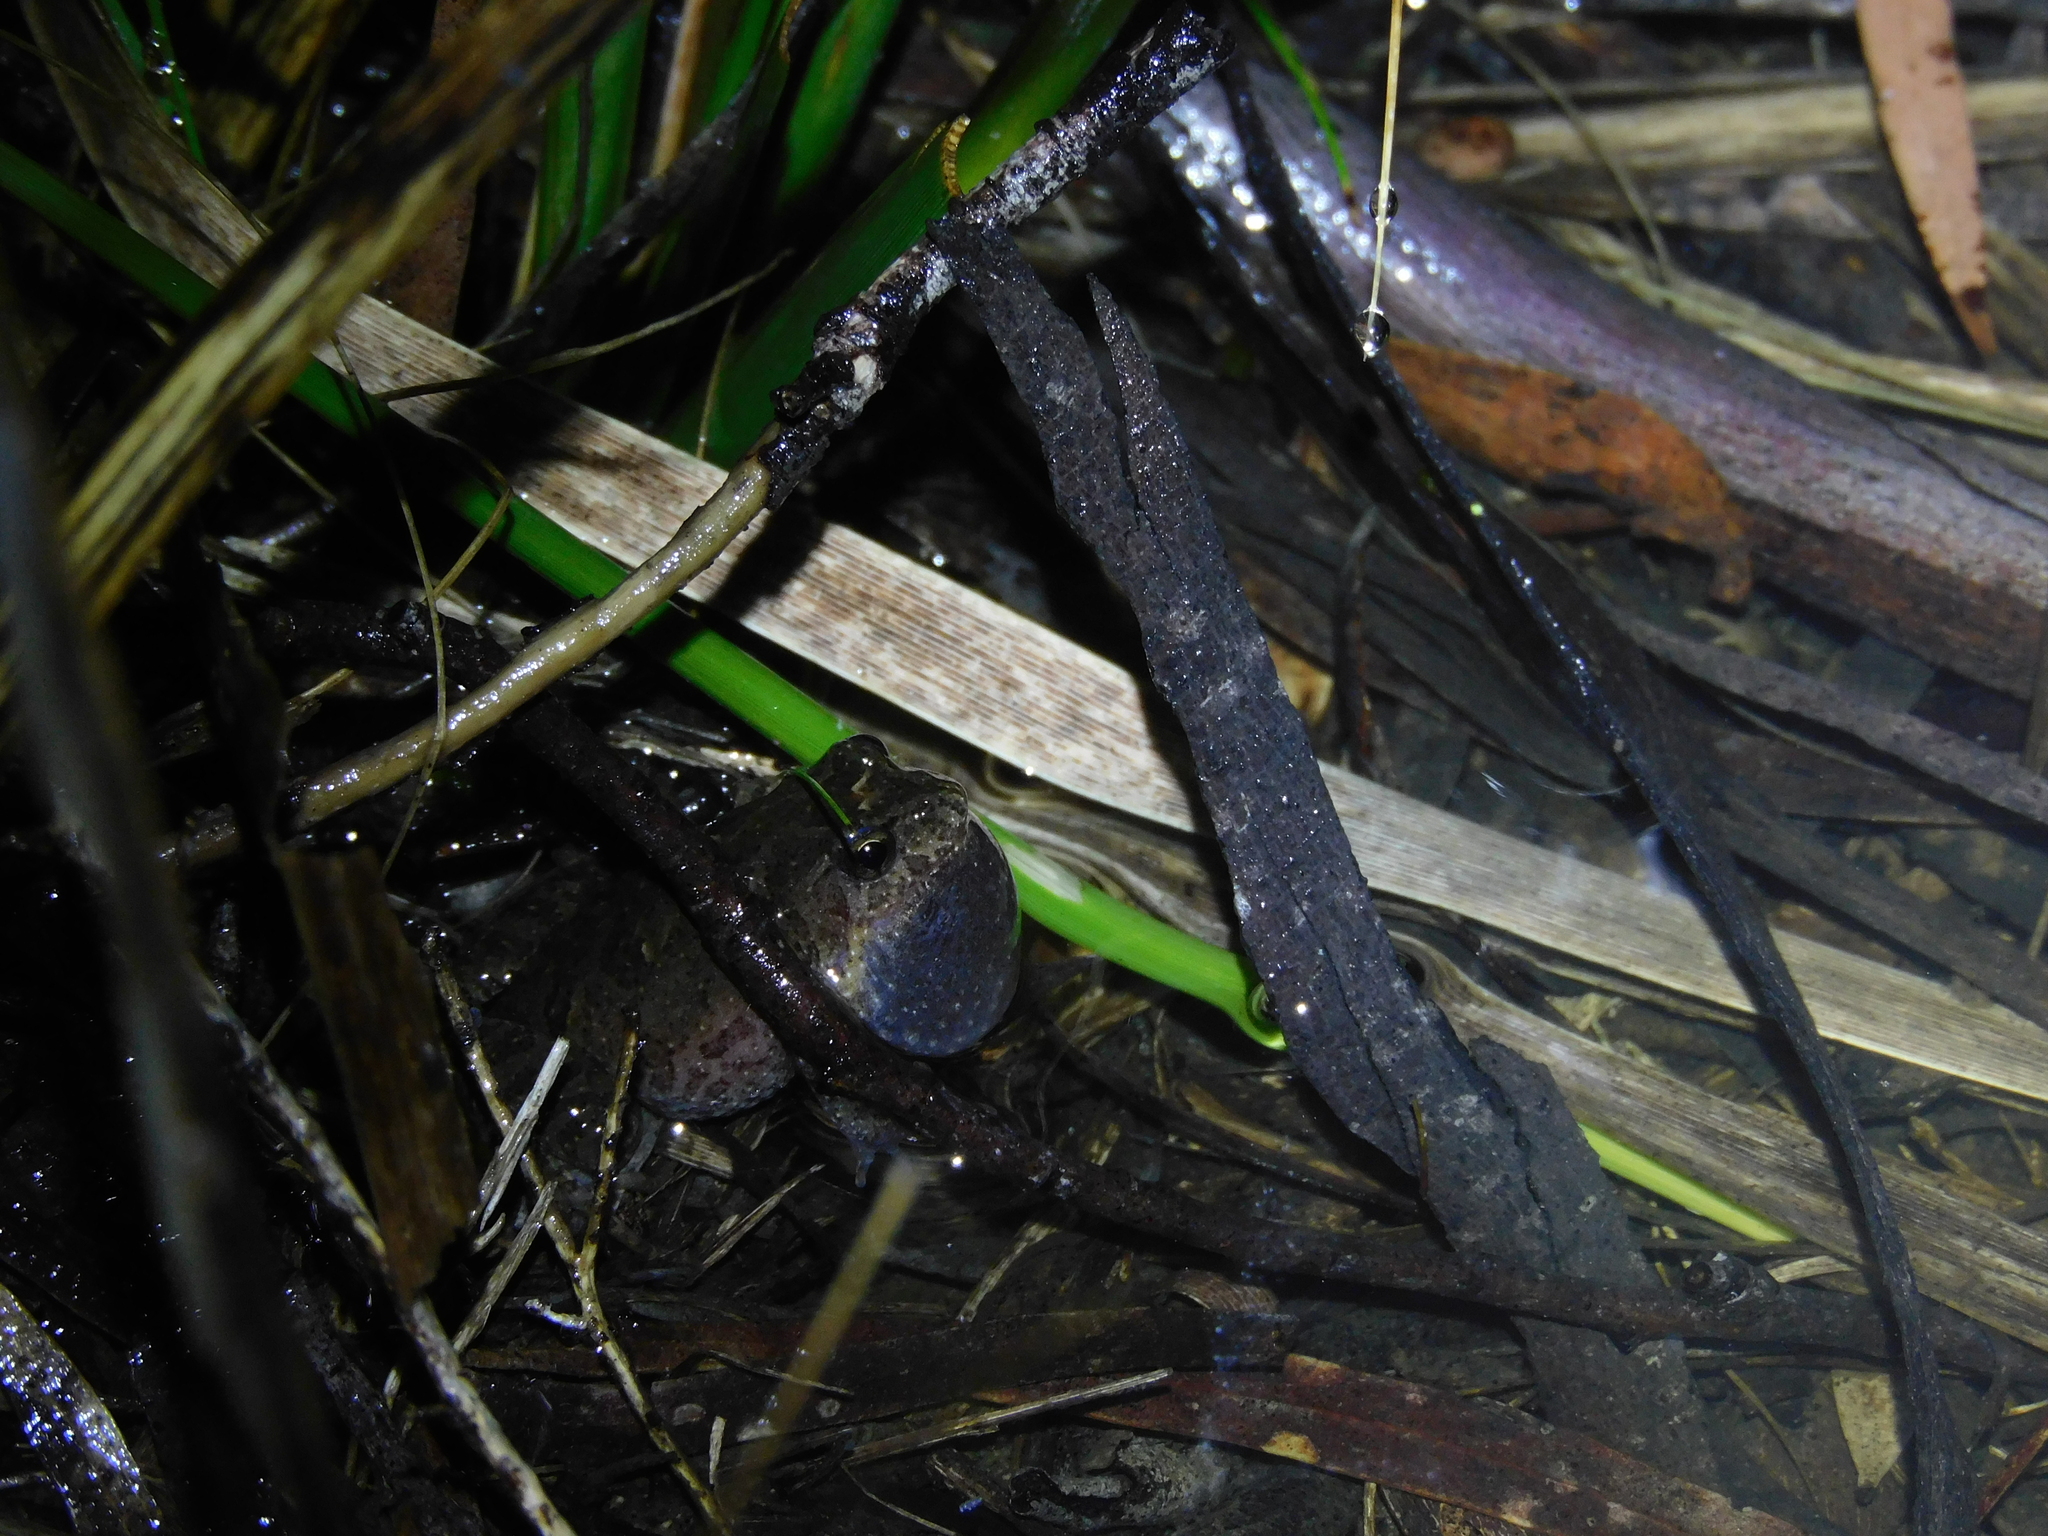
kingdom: Animalia
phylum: Chordata
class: Amphibia
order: Anura
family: Myobatrachidae
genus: Crinia
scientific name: Crinia signifera
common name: Brown froglet
